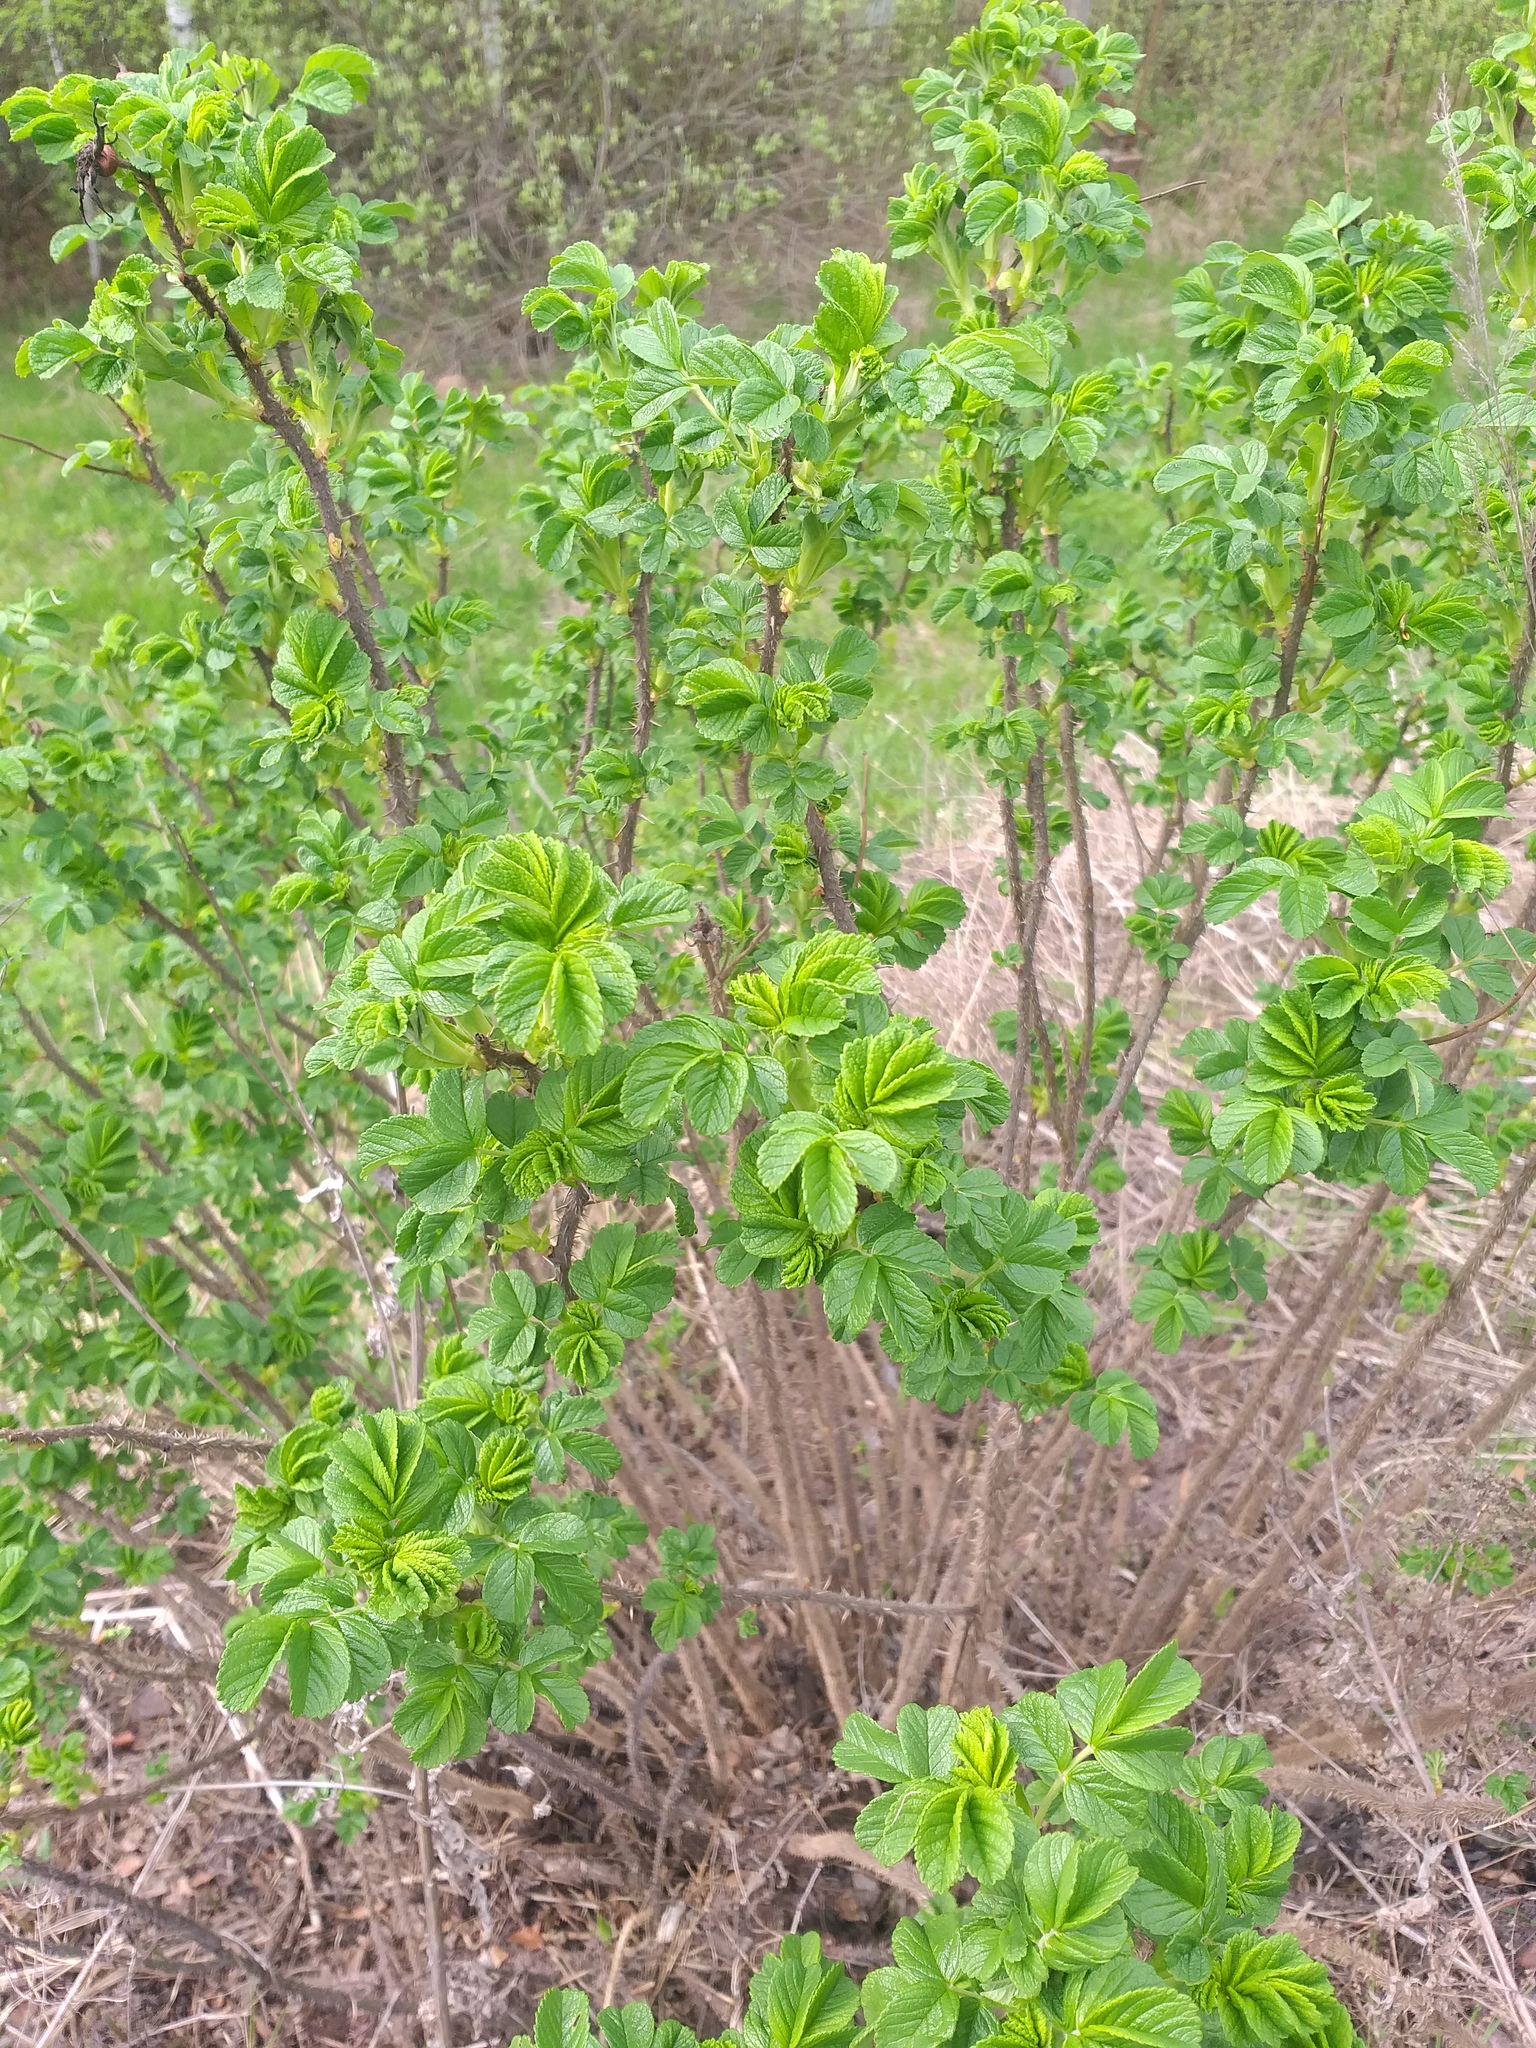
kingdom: Plantae
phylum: Tracheophyta
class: Magnoliopsida
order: Rosales
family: Rosaceae
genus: Rosa
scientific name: Rosa rugosa
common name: Japanese rose
